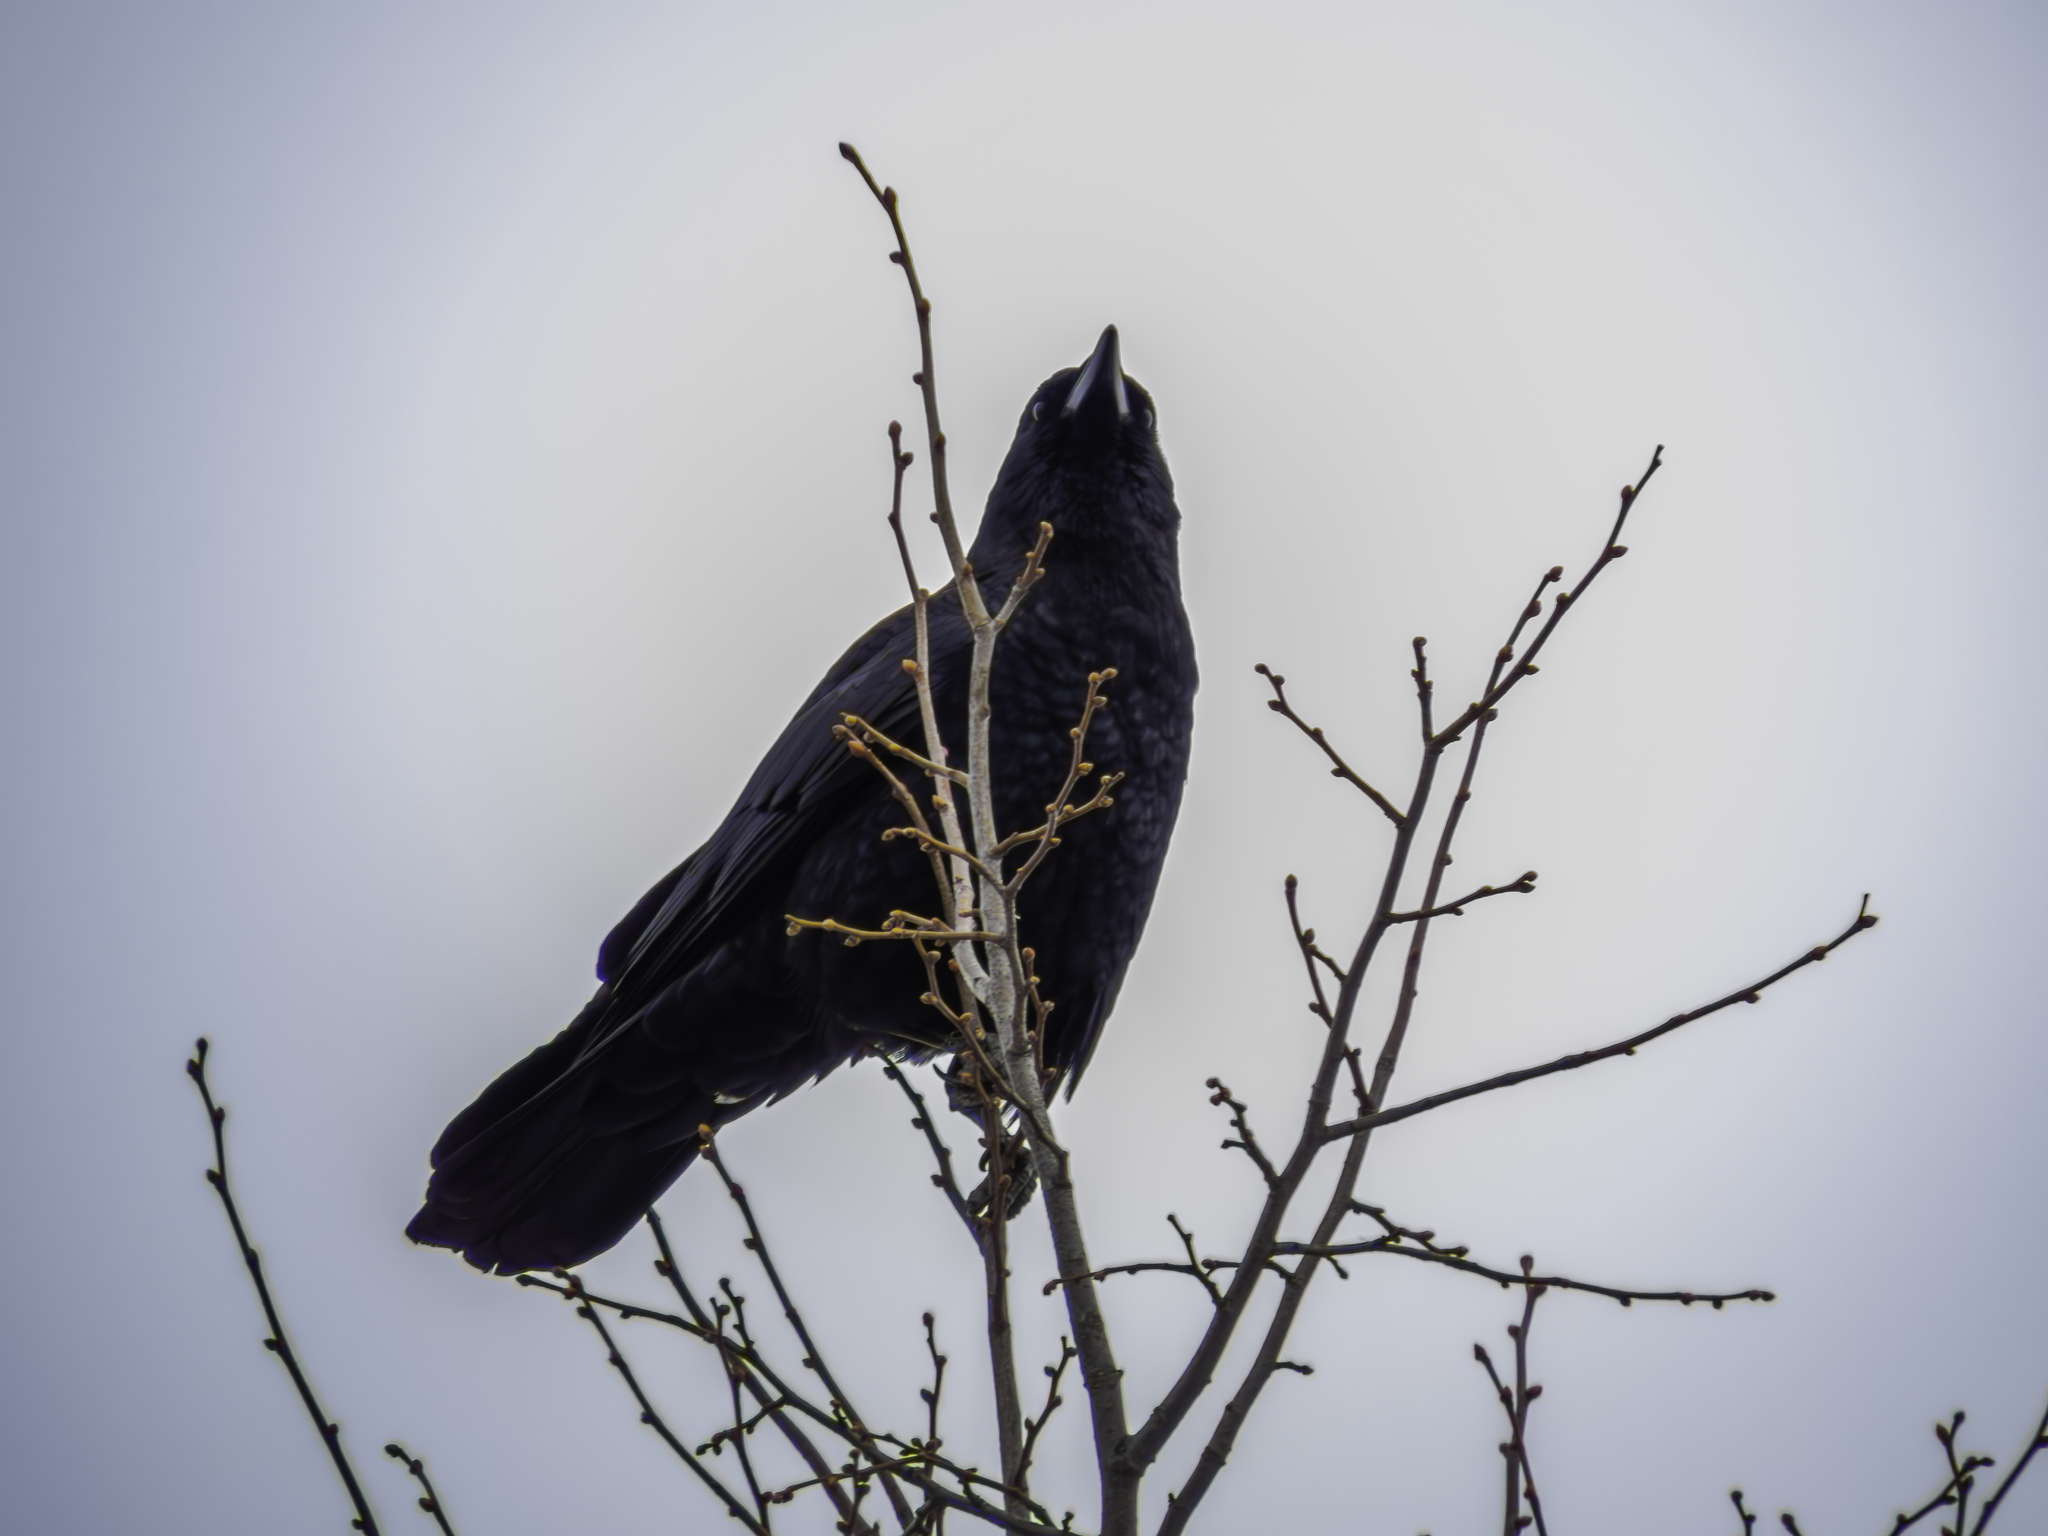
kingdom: Animalia
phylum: Chordata
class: Aves
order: Passeriformes
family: Corvidae
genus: Corvus
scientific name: Corvus brachyrhynchos
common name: American crow
